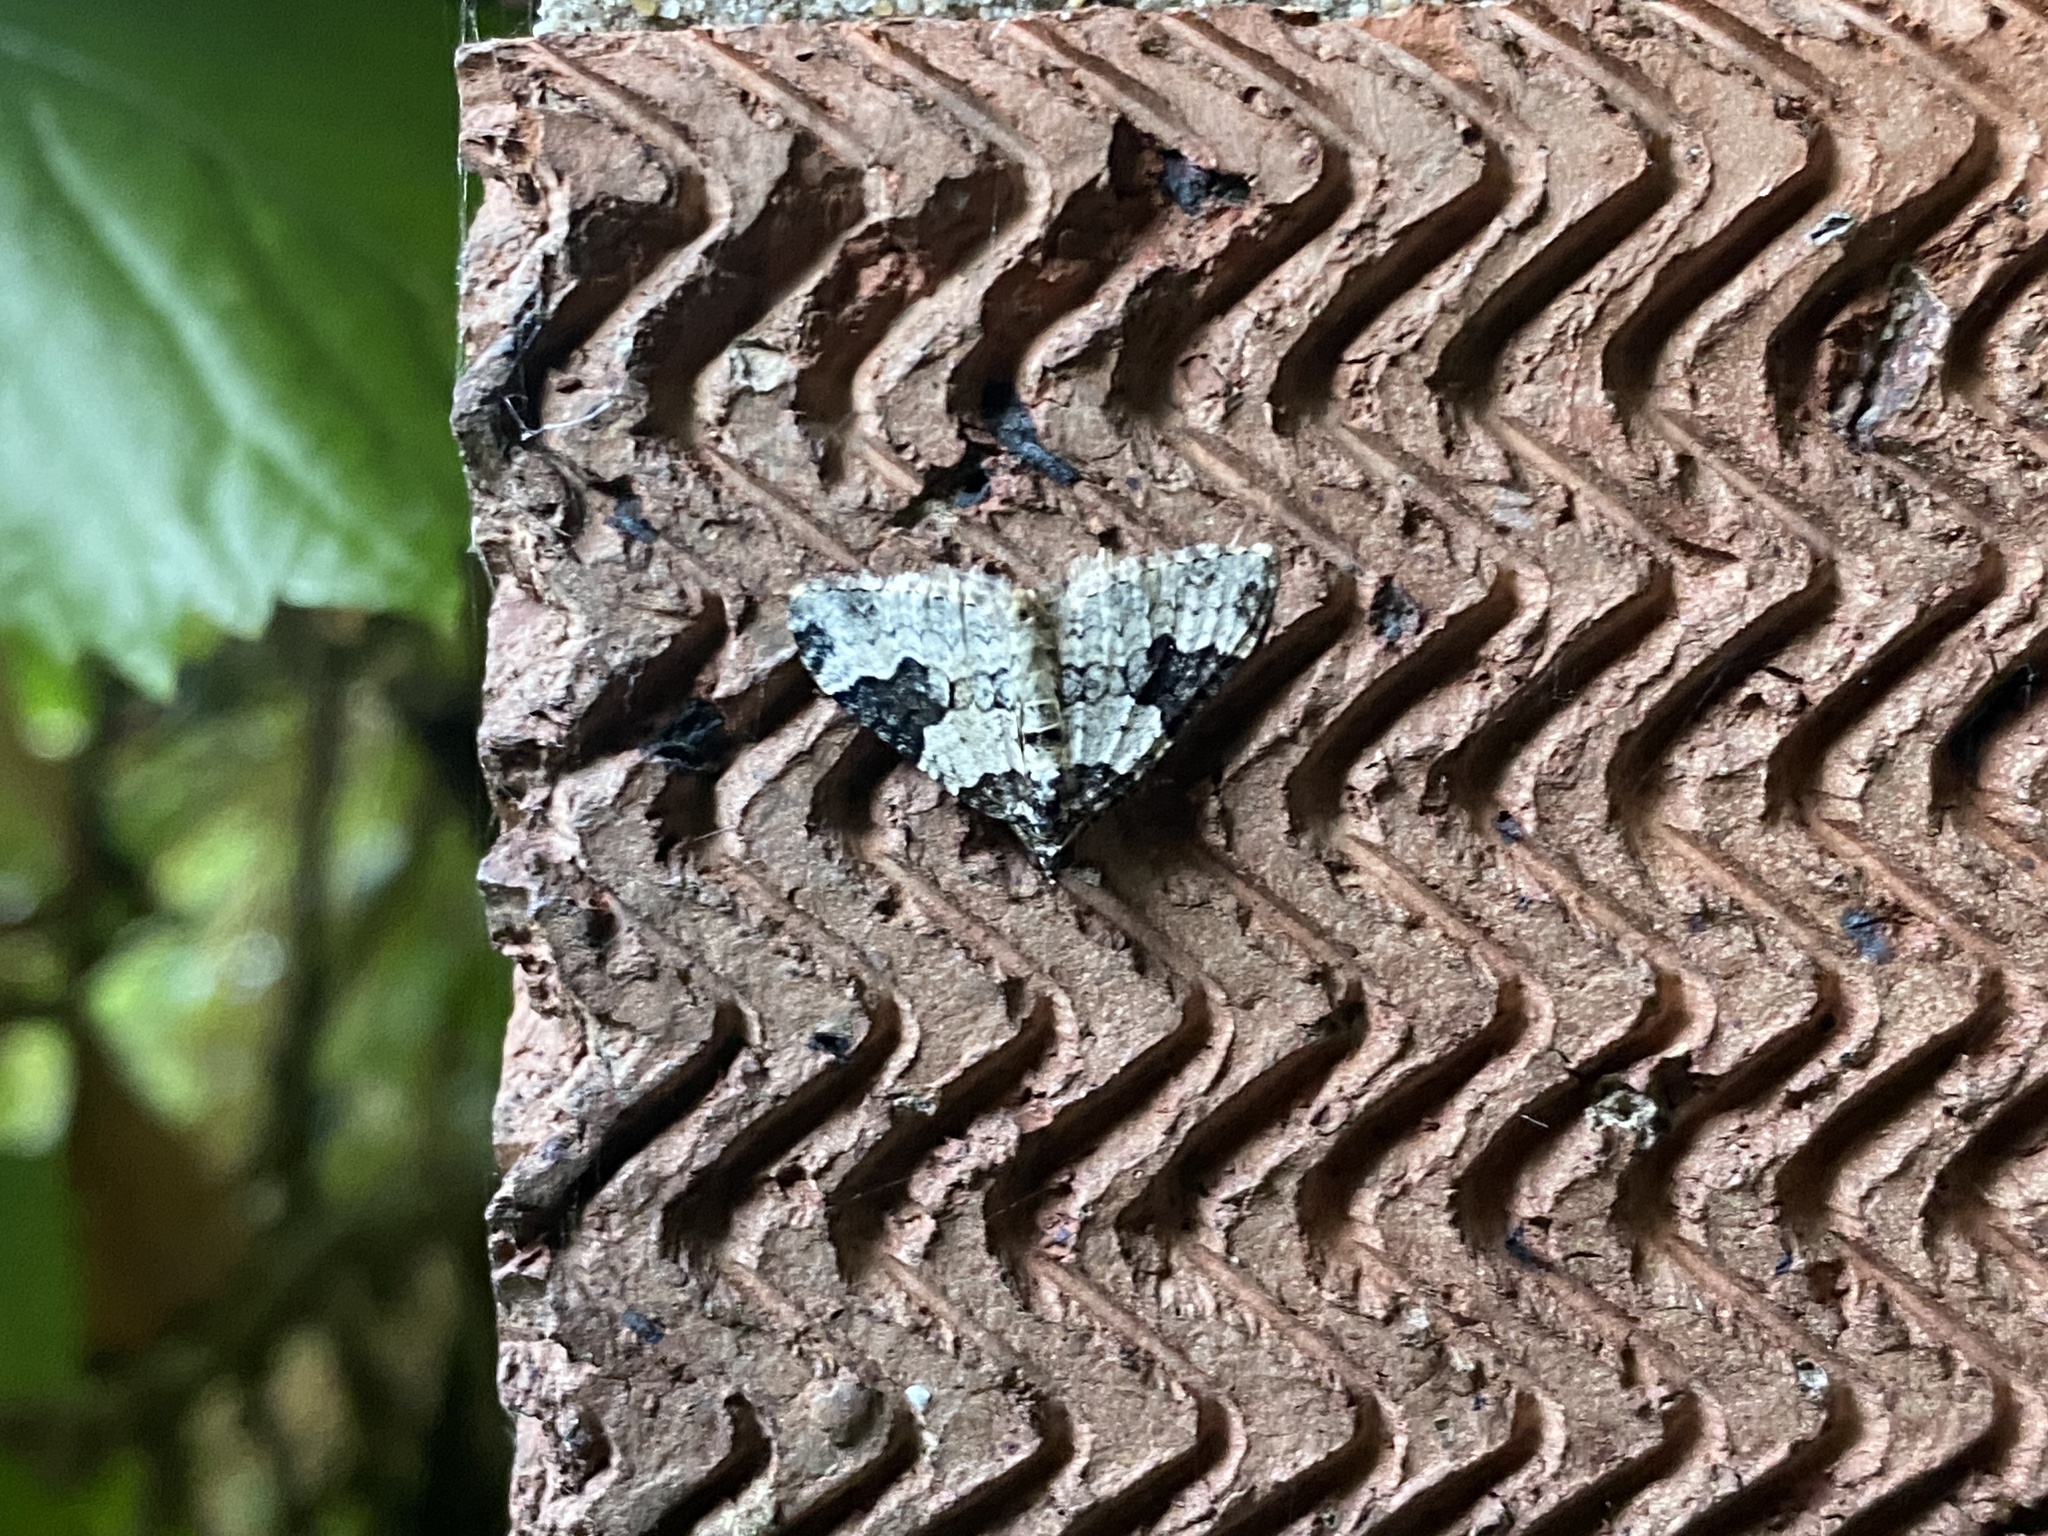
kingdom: Animalia
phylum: Arthropoda
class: Insecta
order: Lepidoptera
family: Geometridae
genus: Xanthorhoe
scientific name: Xanthorhoe fluctuata
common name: Garden carpet
